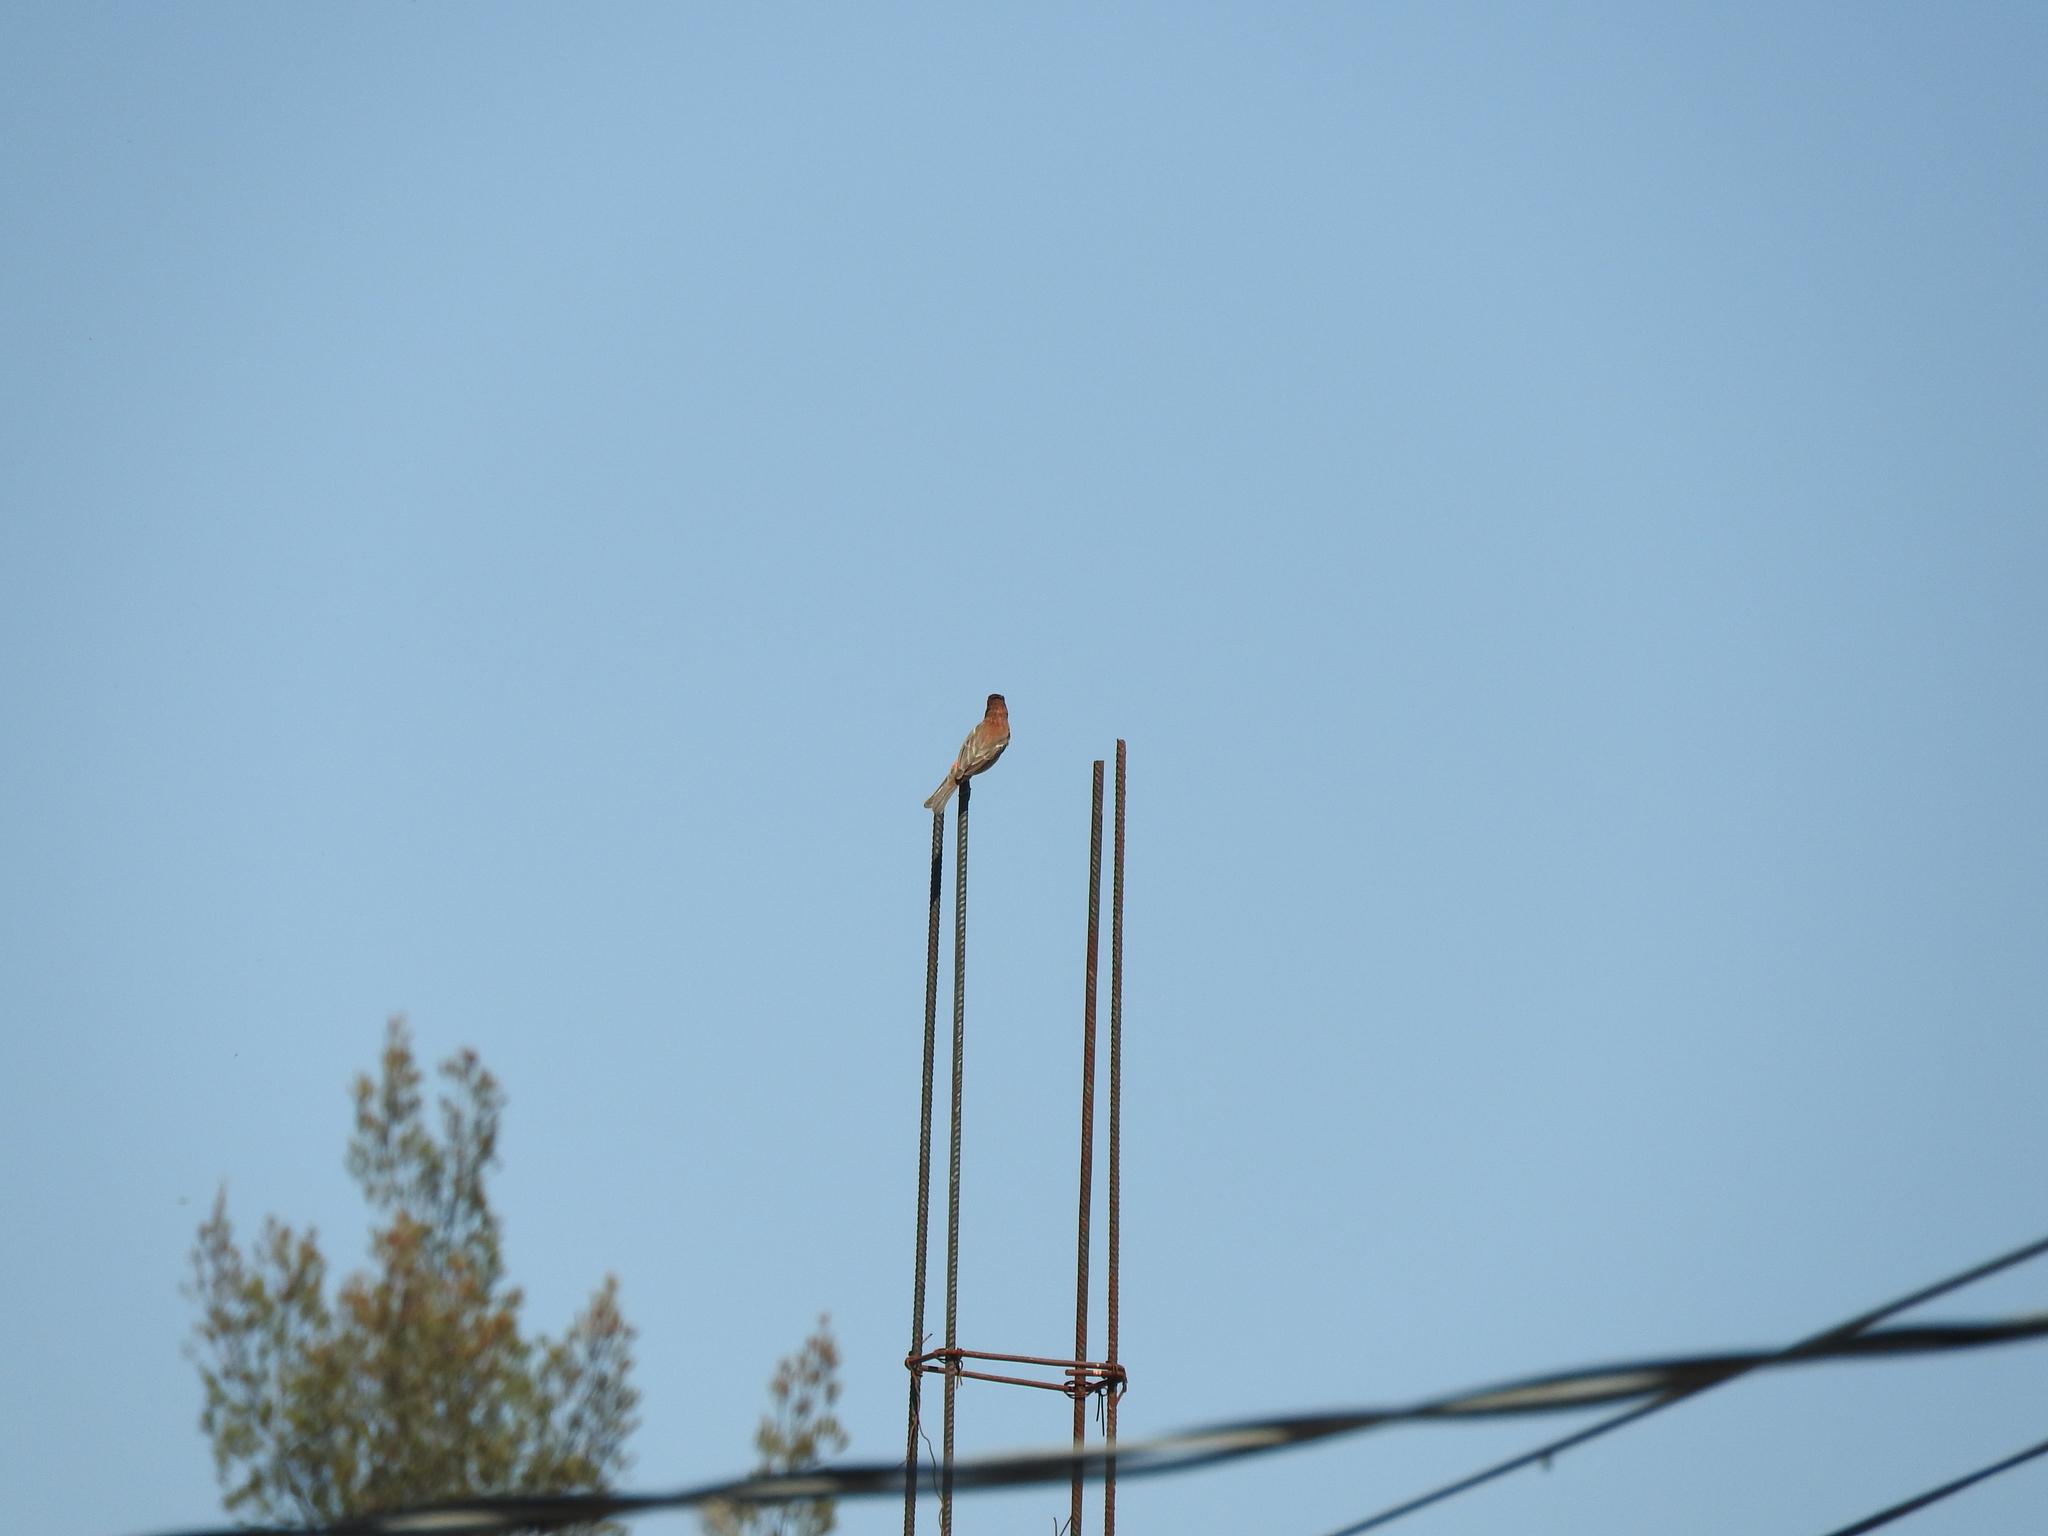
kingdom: Animalia
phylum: Chordata
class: Aves
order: Passeriformes
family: Fringillidae
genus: Haemorhous
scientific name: Haemorhous mexicanus
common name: House finch
